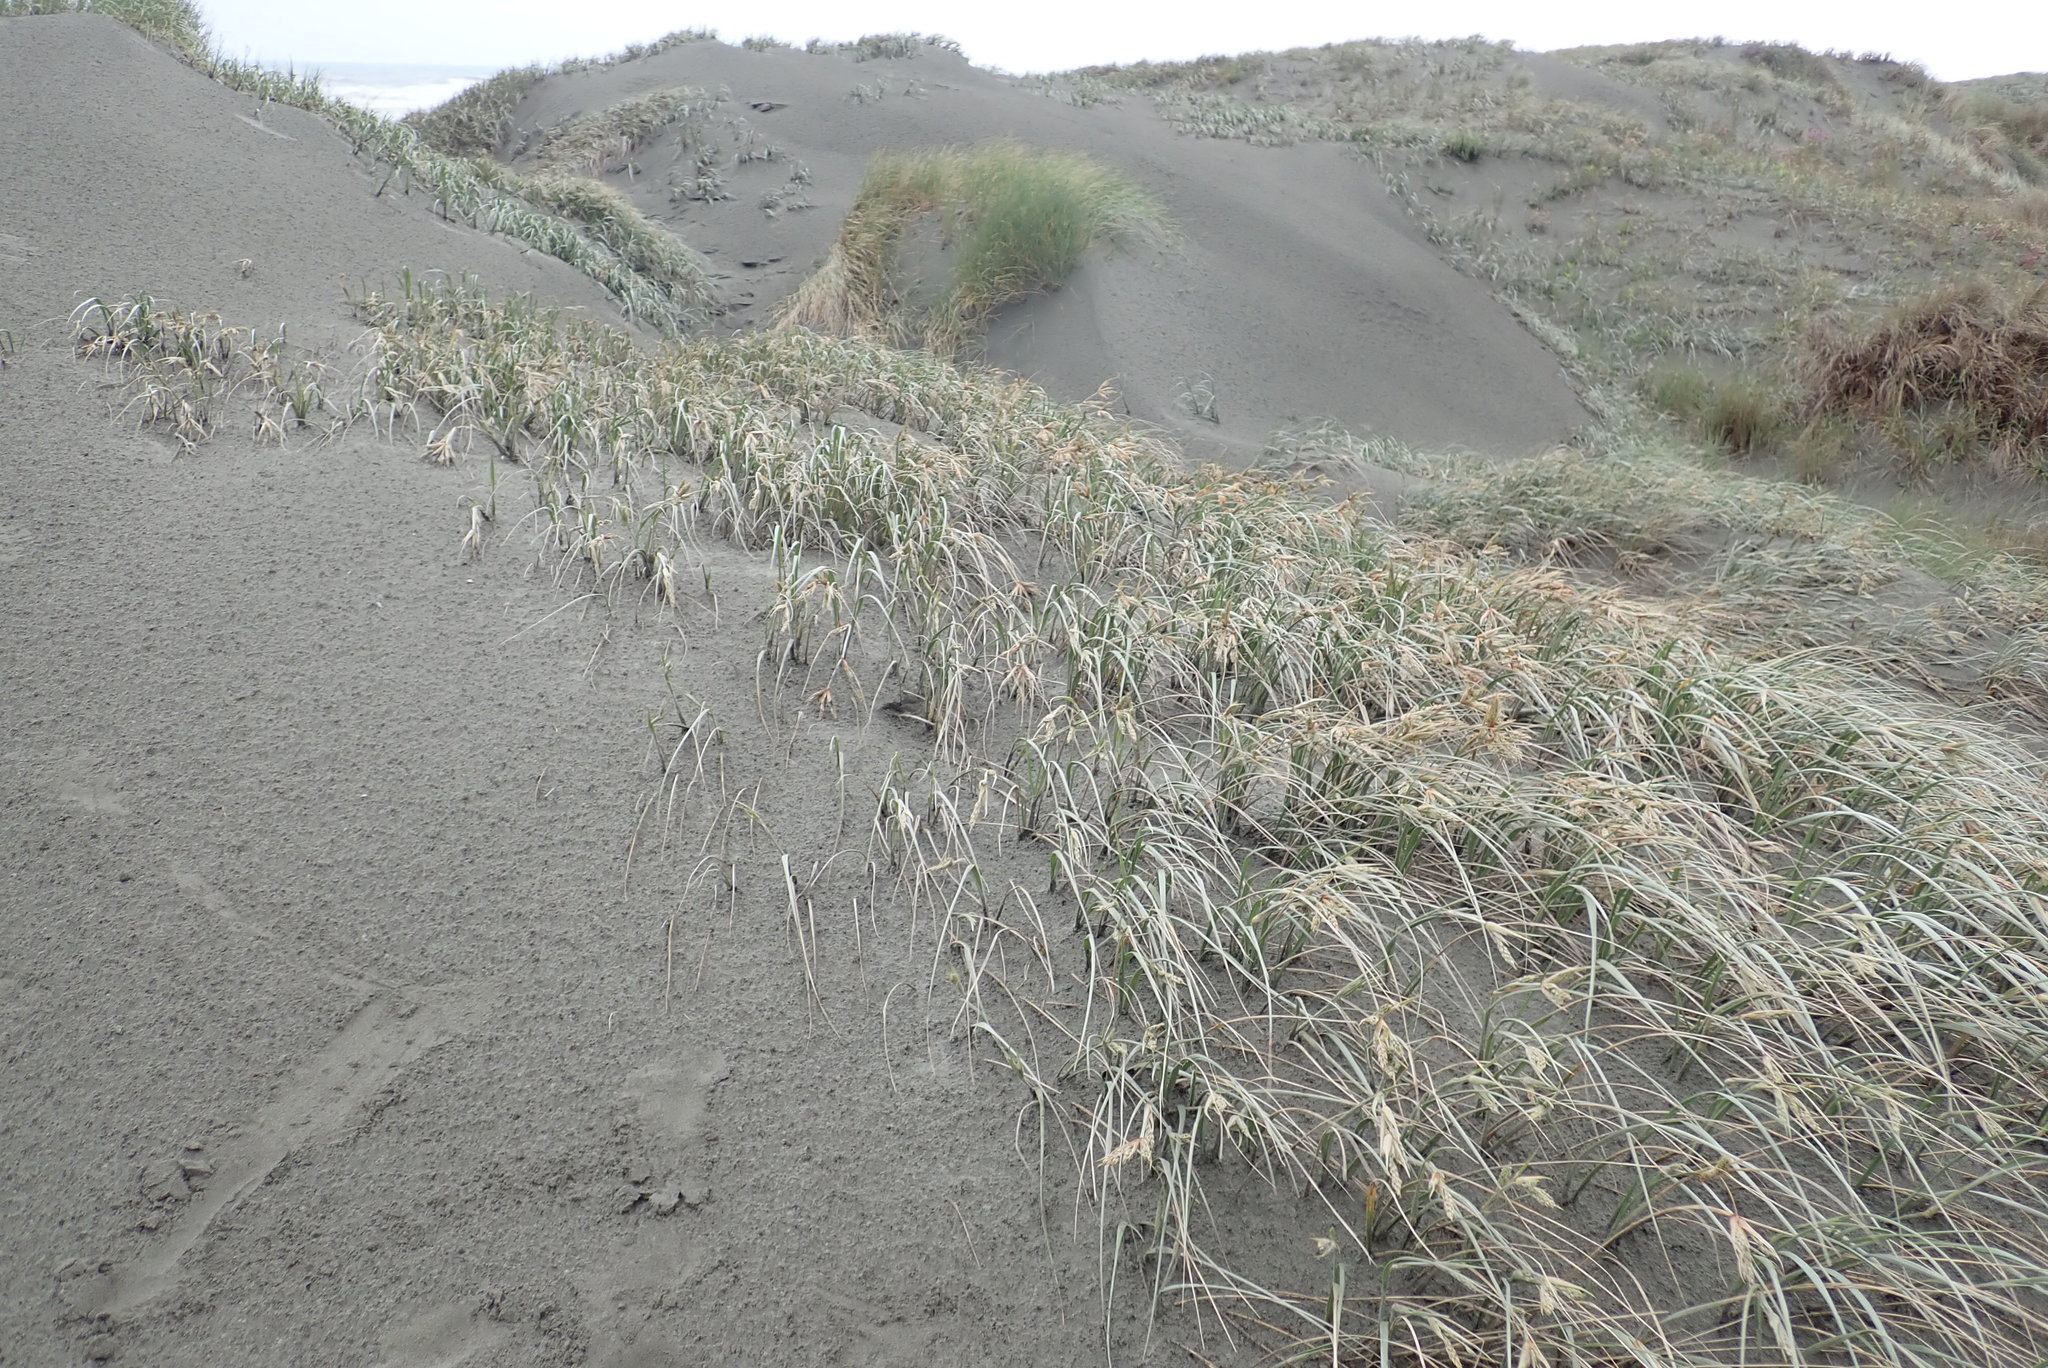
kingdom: Plantae
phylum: Tracheophyta
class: Liliopsida
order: Poales
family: Poaceae
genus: Spinifex
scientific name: Spinifex sericeus
